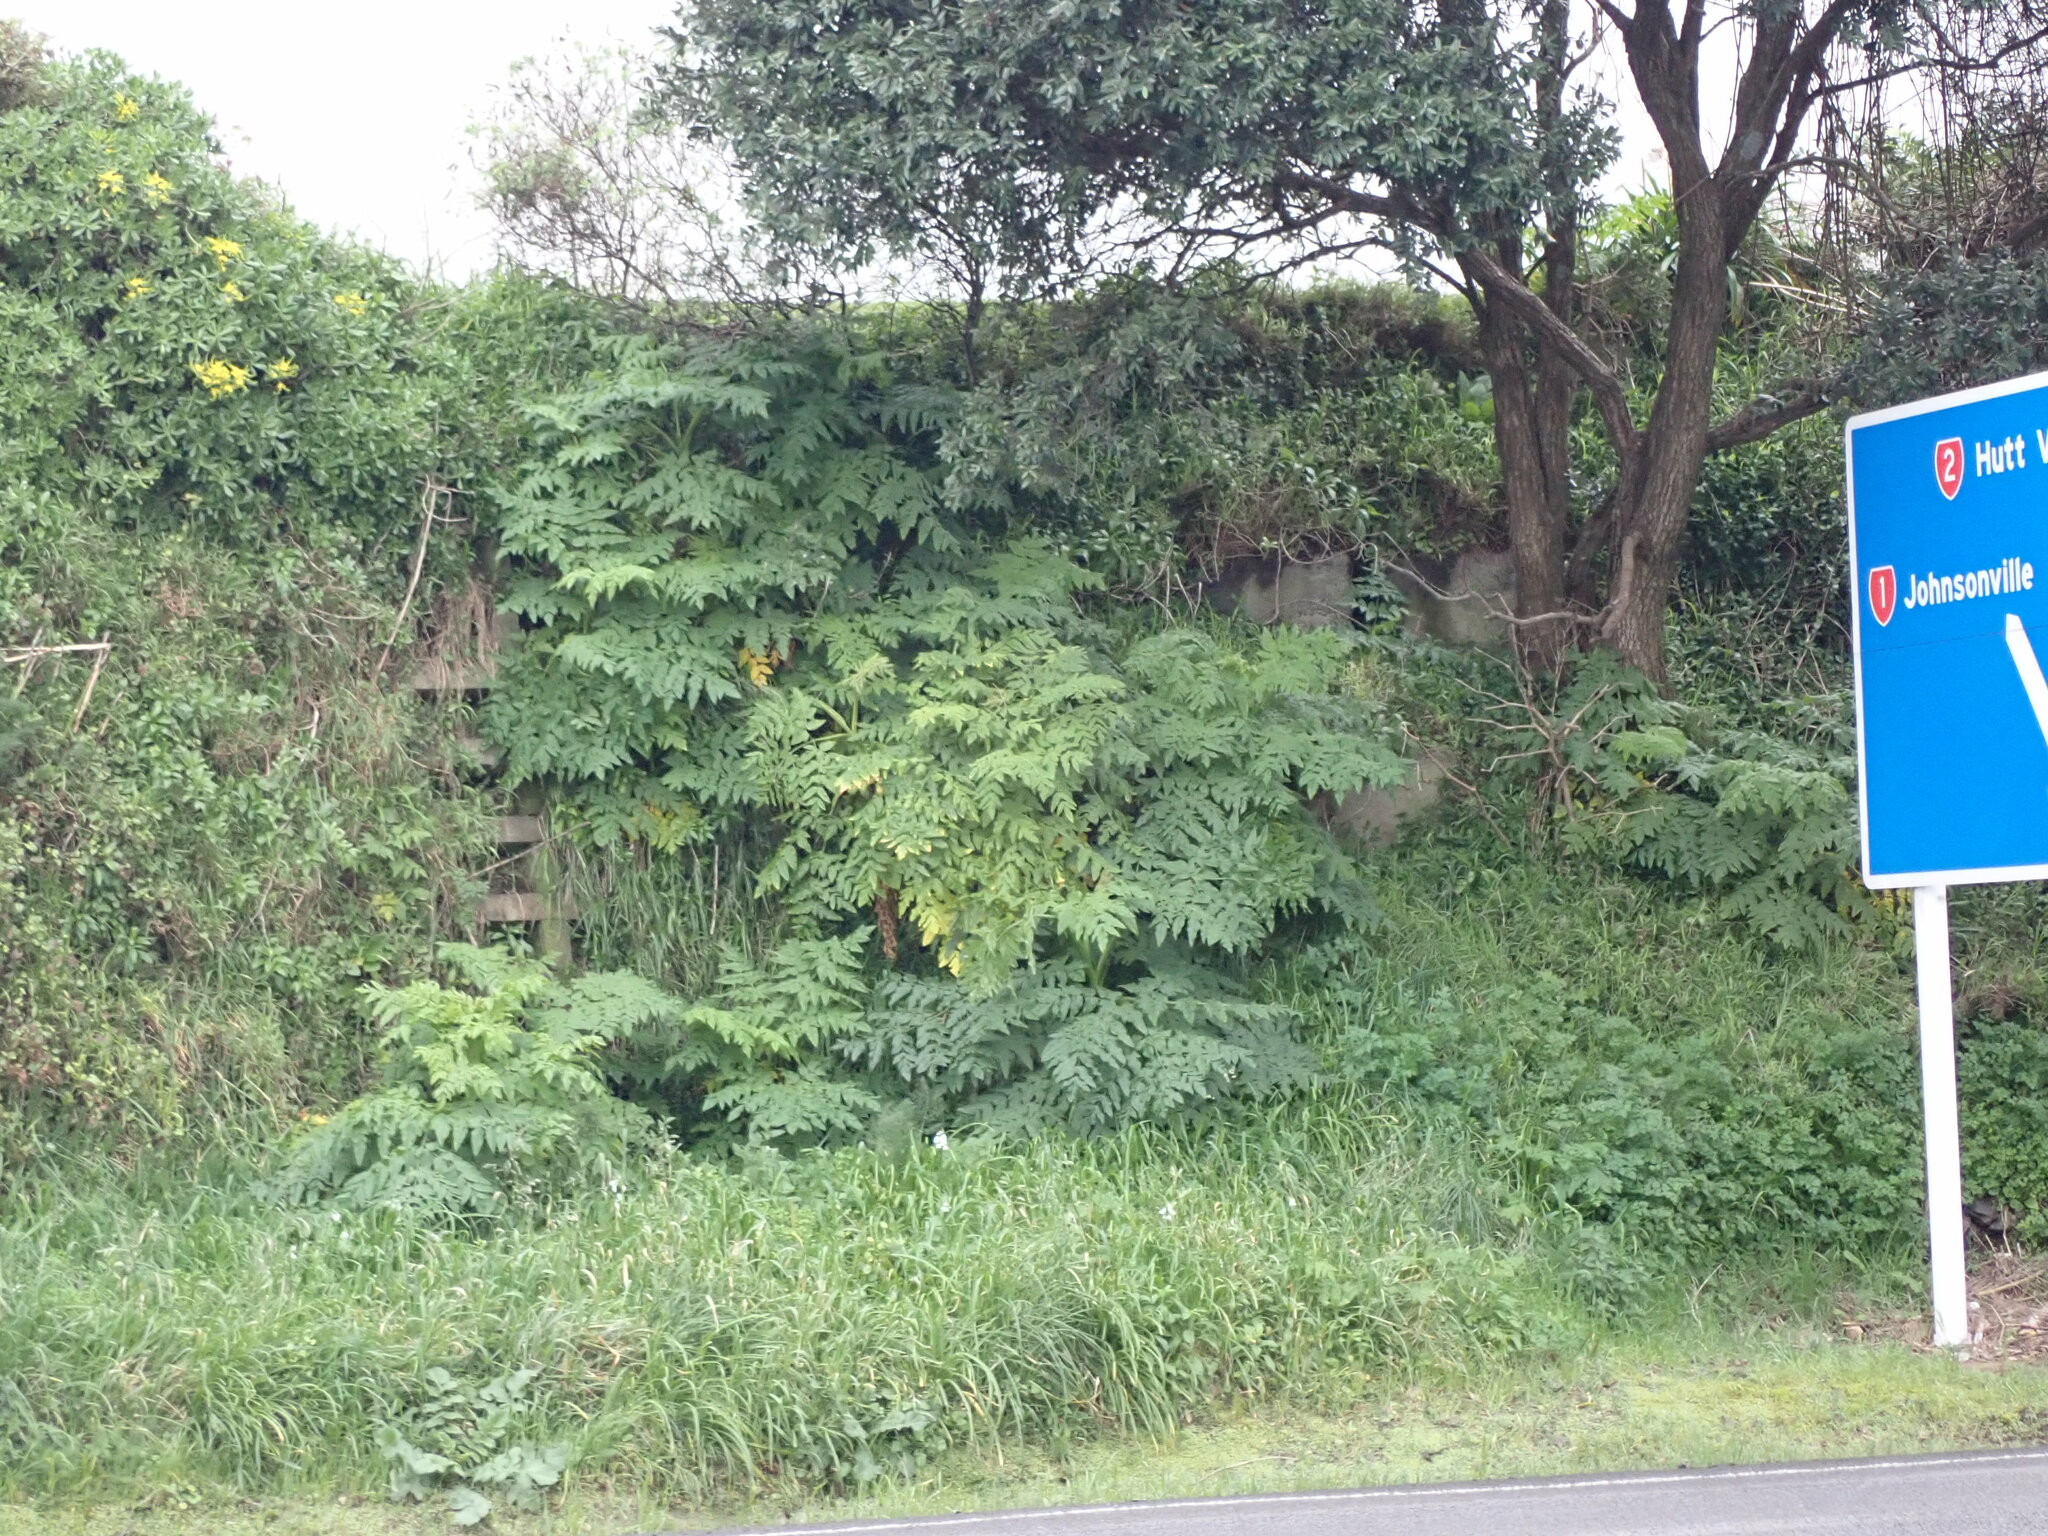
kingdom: Plantae
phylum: Tracheophyta
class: Magnoliopsida
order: Apiales
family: Apiaceae
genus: Daucus
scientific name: Daucus decipiens
